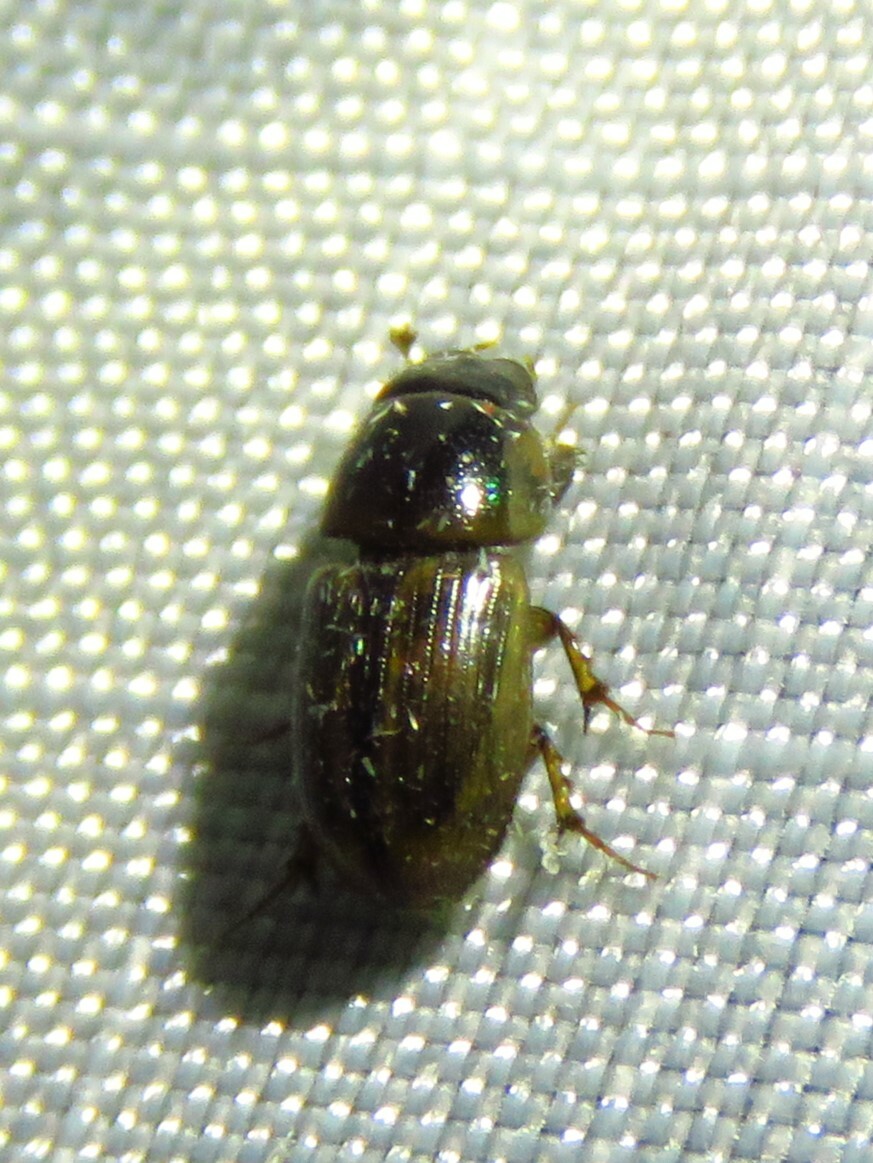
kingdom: Animalia
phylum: Arthropoda
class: Insecta
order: Coleoptera
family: Scarabaeidae
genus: Labarrus
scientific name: Labarrus lividus
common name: Scarab beetle
